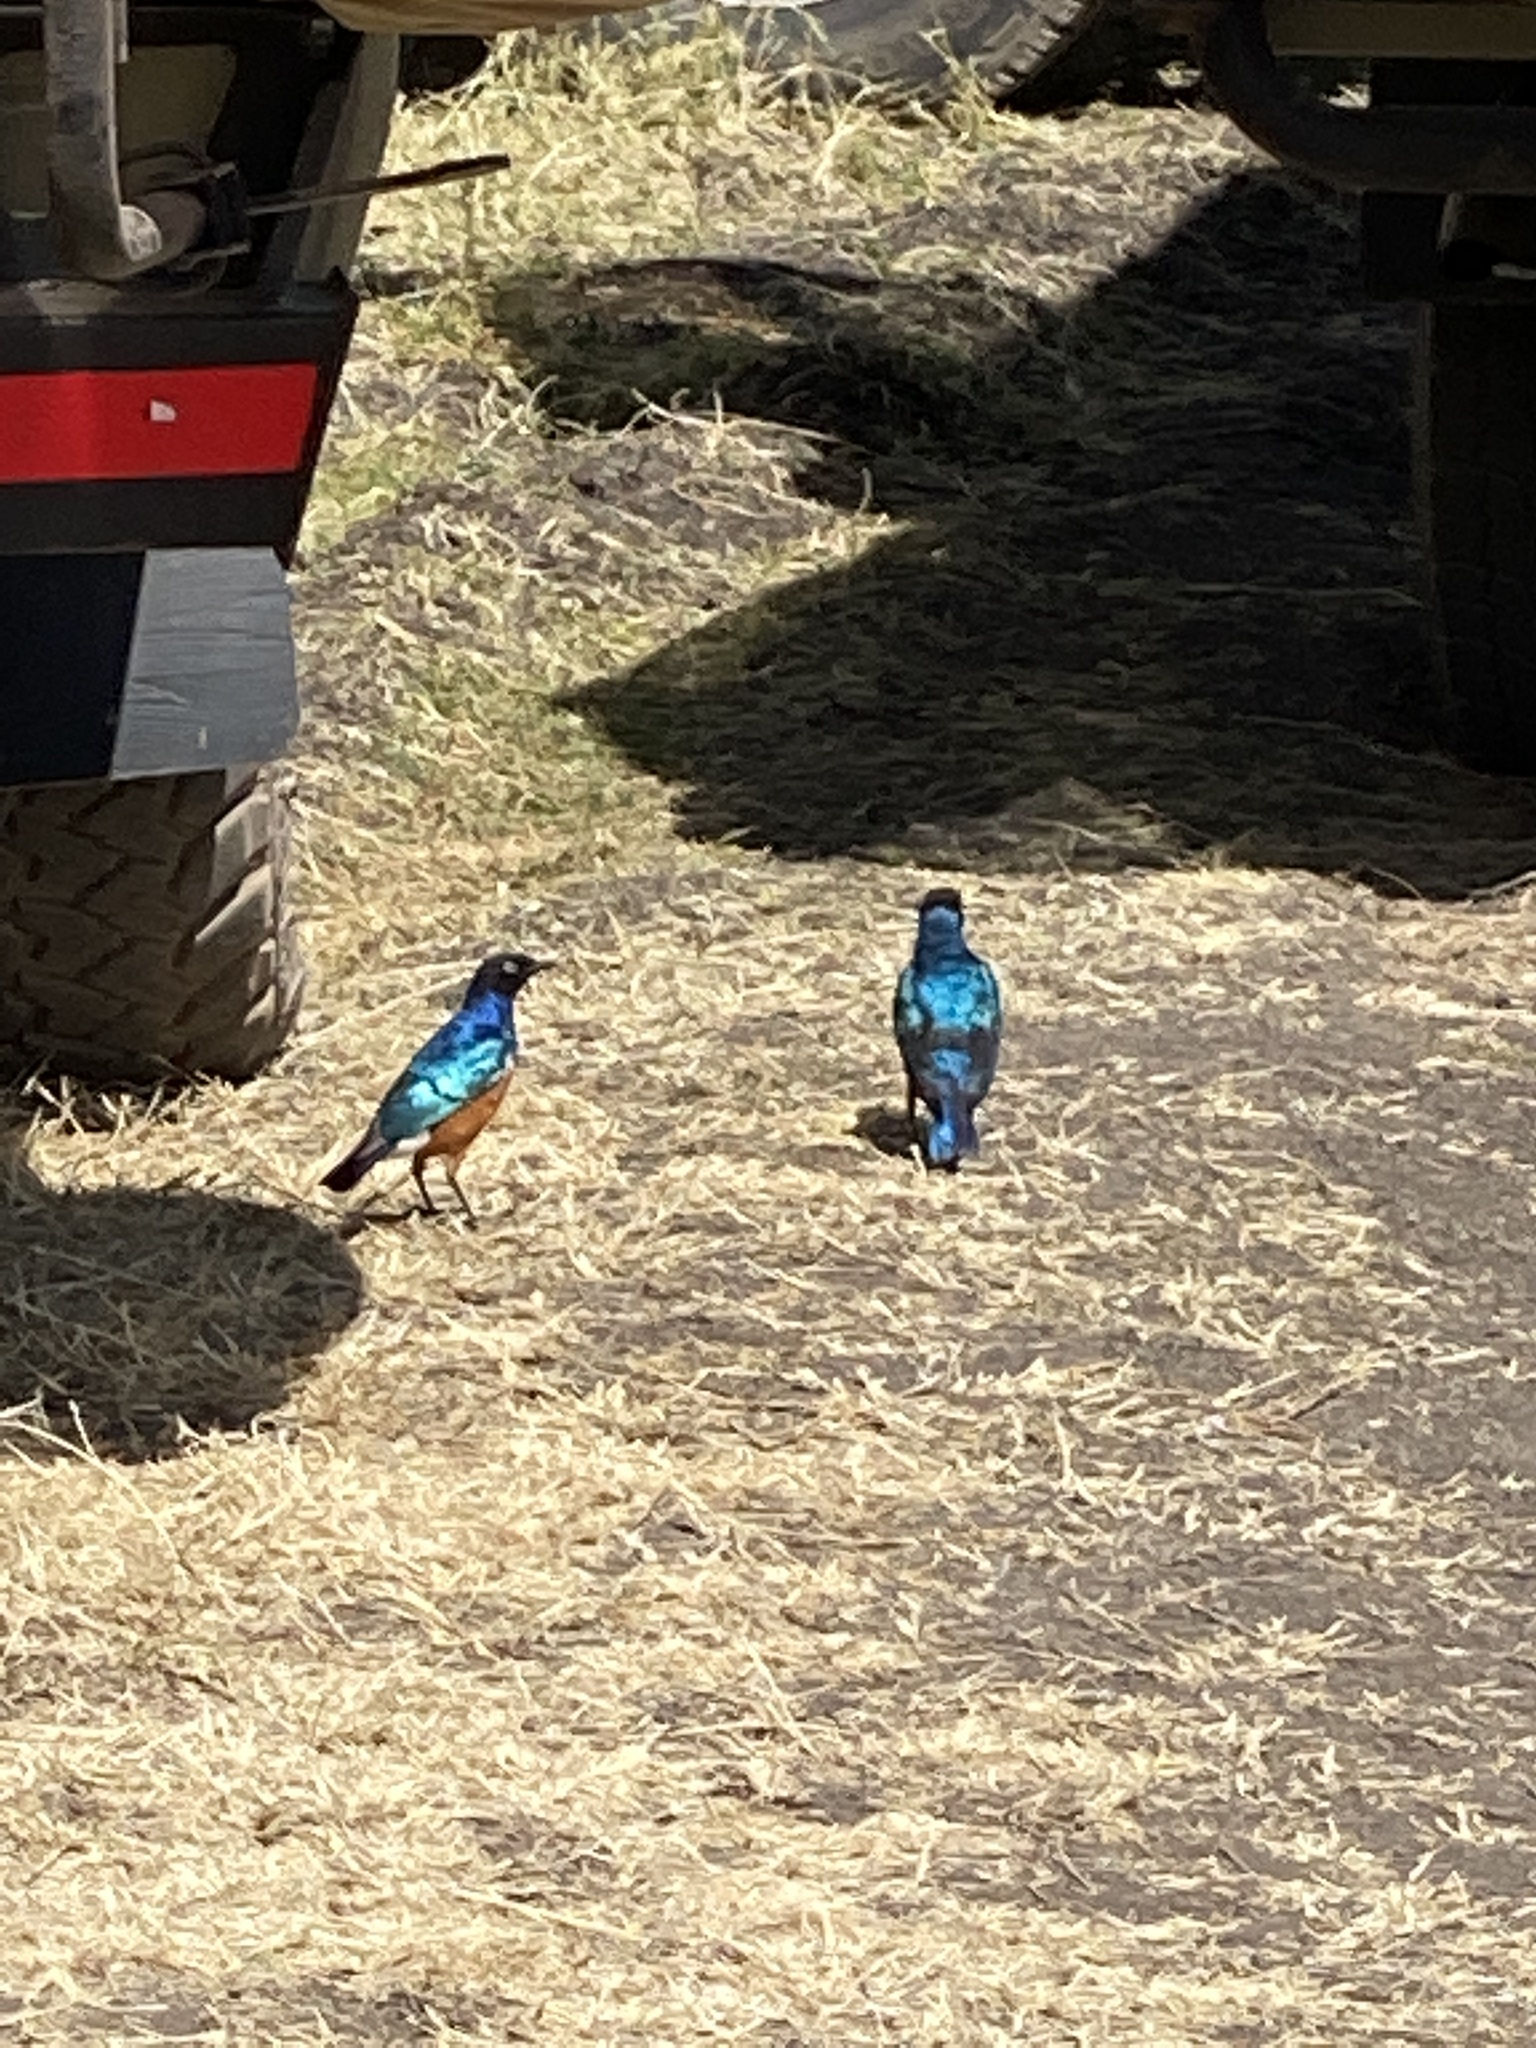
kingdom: Animalia
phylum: Chordata
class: Aves
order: Passeriformes
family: Sturnidae
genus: Lamprotornis
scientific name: Lamprotornis superbus
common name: Superb starling
